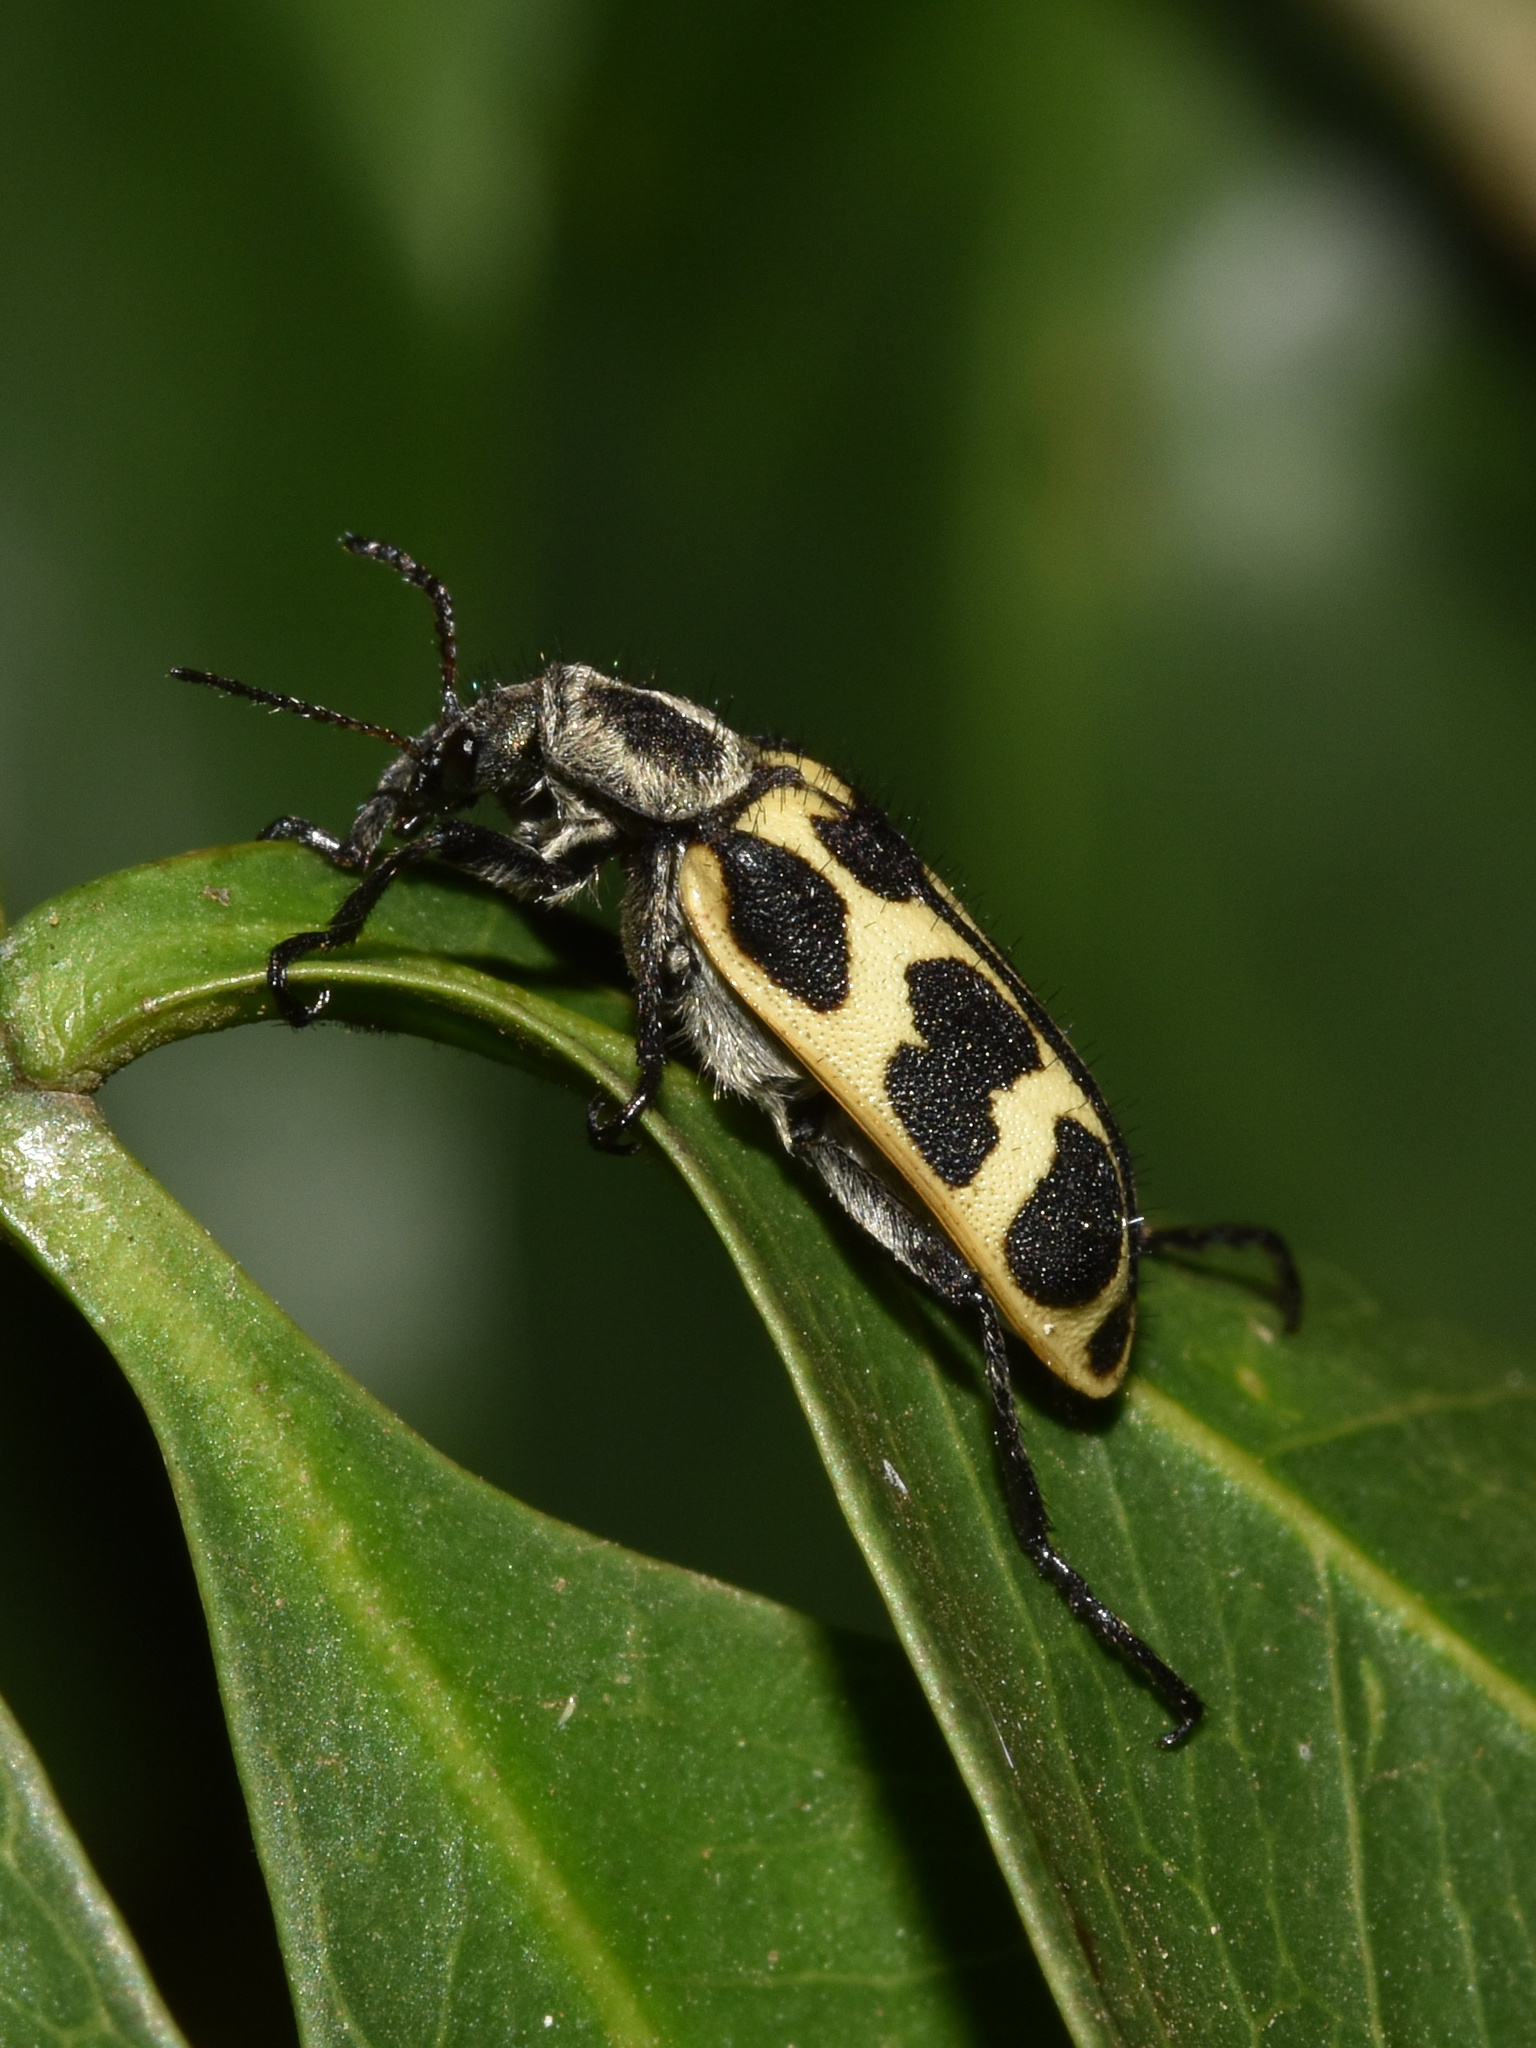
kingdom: Animalia
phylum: Arthropoda
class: Insecta
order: Coleoptera
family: Melyridae
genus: Astylus
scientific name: Astylus atromaculatus
